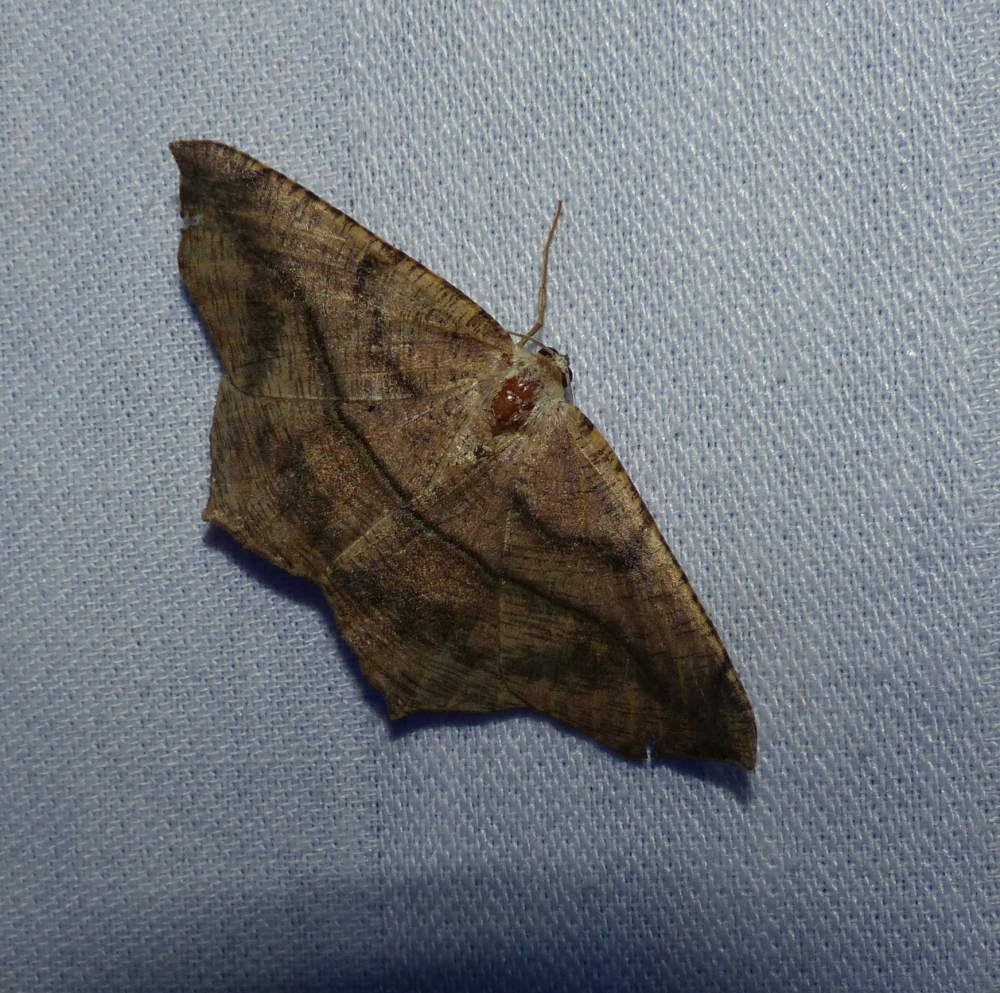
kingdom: Animalia
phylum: Arthropoda
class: Insecta
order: Lepidoptera
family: Geometridae
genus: Prochoerodes
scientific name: Prochoerodes lineola
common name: Large maple spanworm
